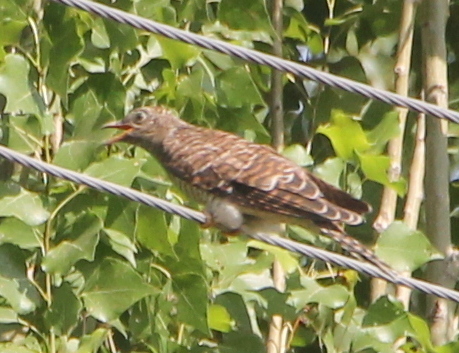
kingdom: Animalia
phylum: Chordata
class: Aves
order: Cuculiformes
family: Cuculidae
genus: Cuculus
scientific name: Cuculus canorus
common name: Common cuckoo
